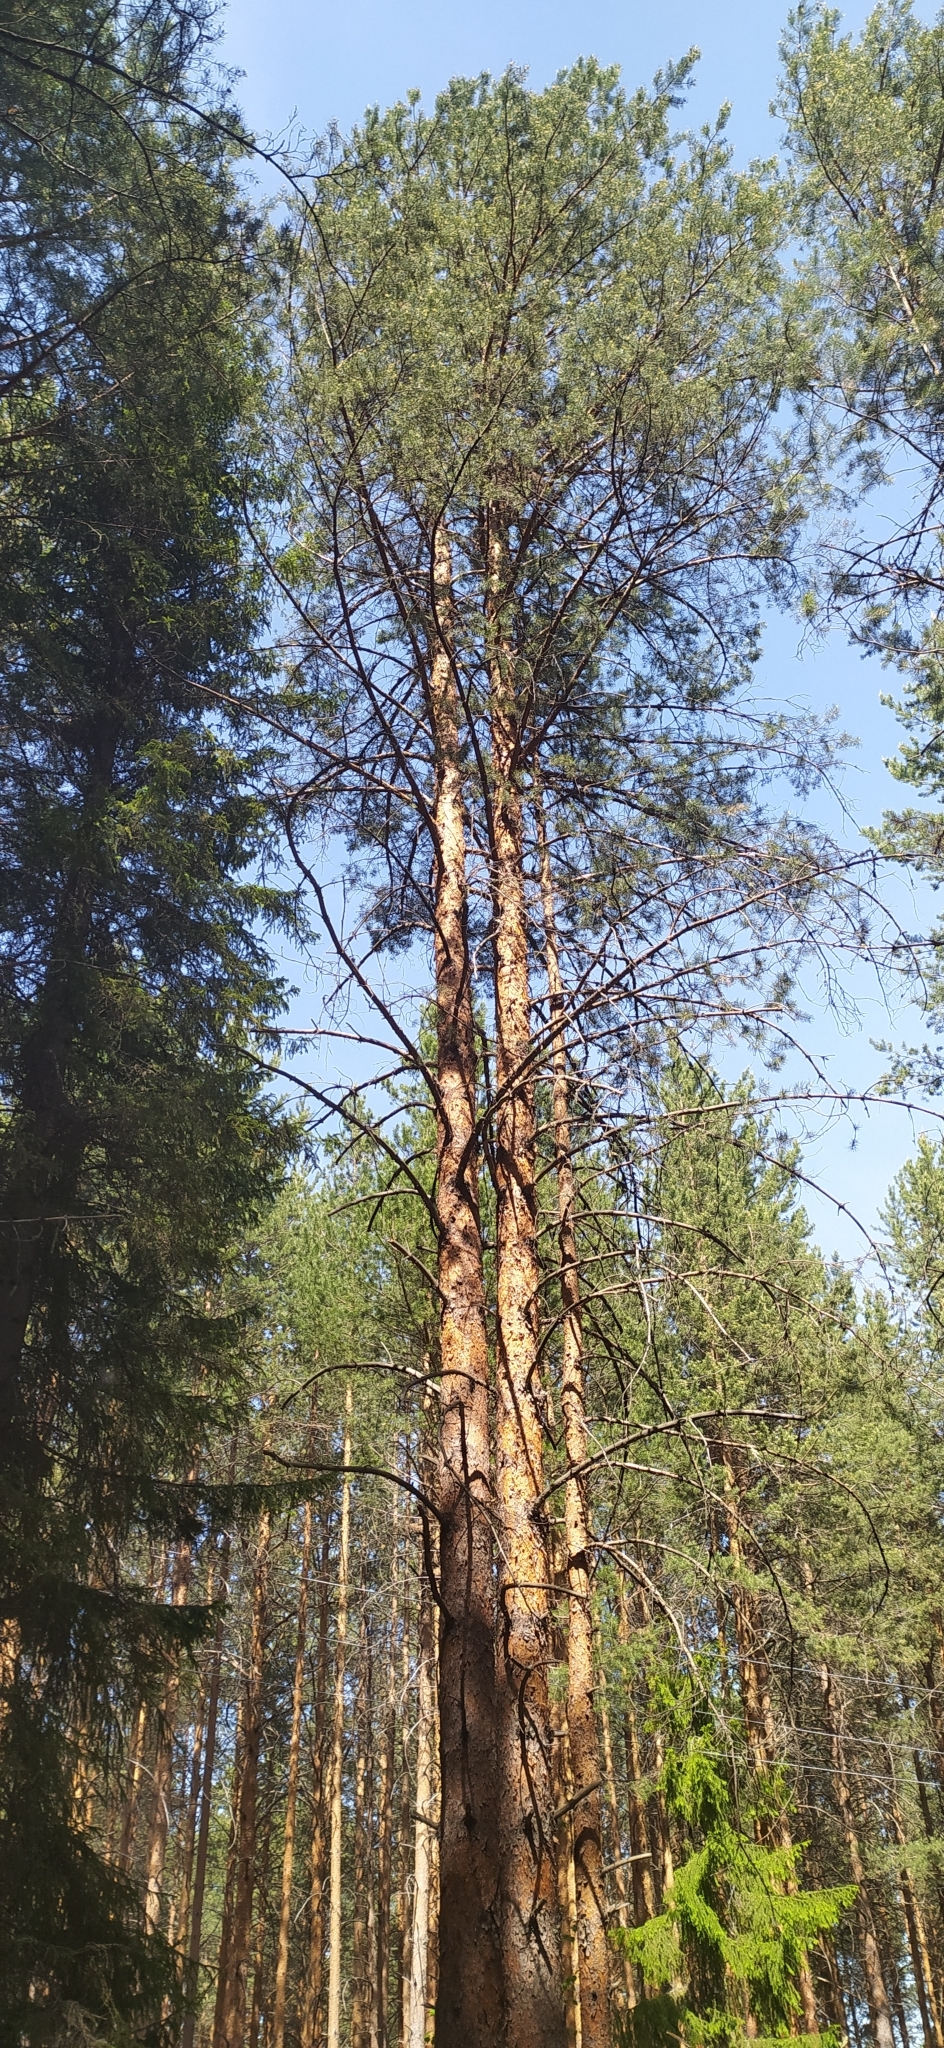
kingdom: Plantae
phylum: Tracheophyta
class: Pinopsida
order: Pinales
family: Pinaceae
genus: Pinus
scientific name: Pinus sylvestris
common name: Scots pine
